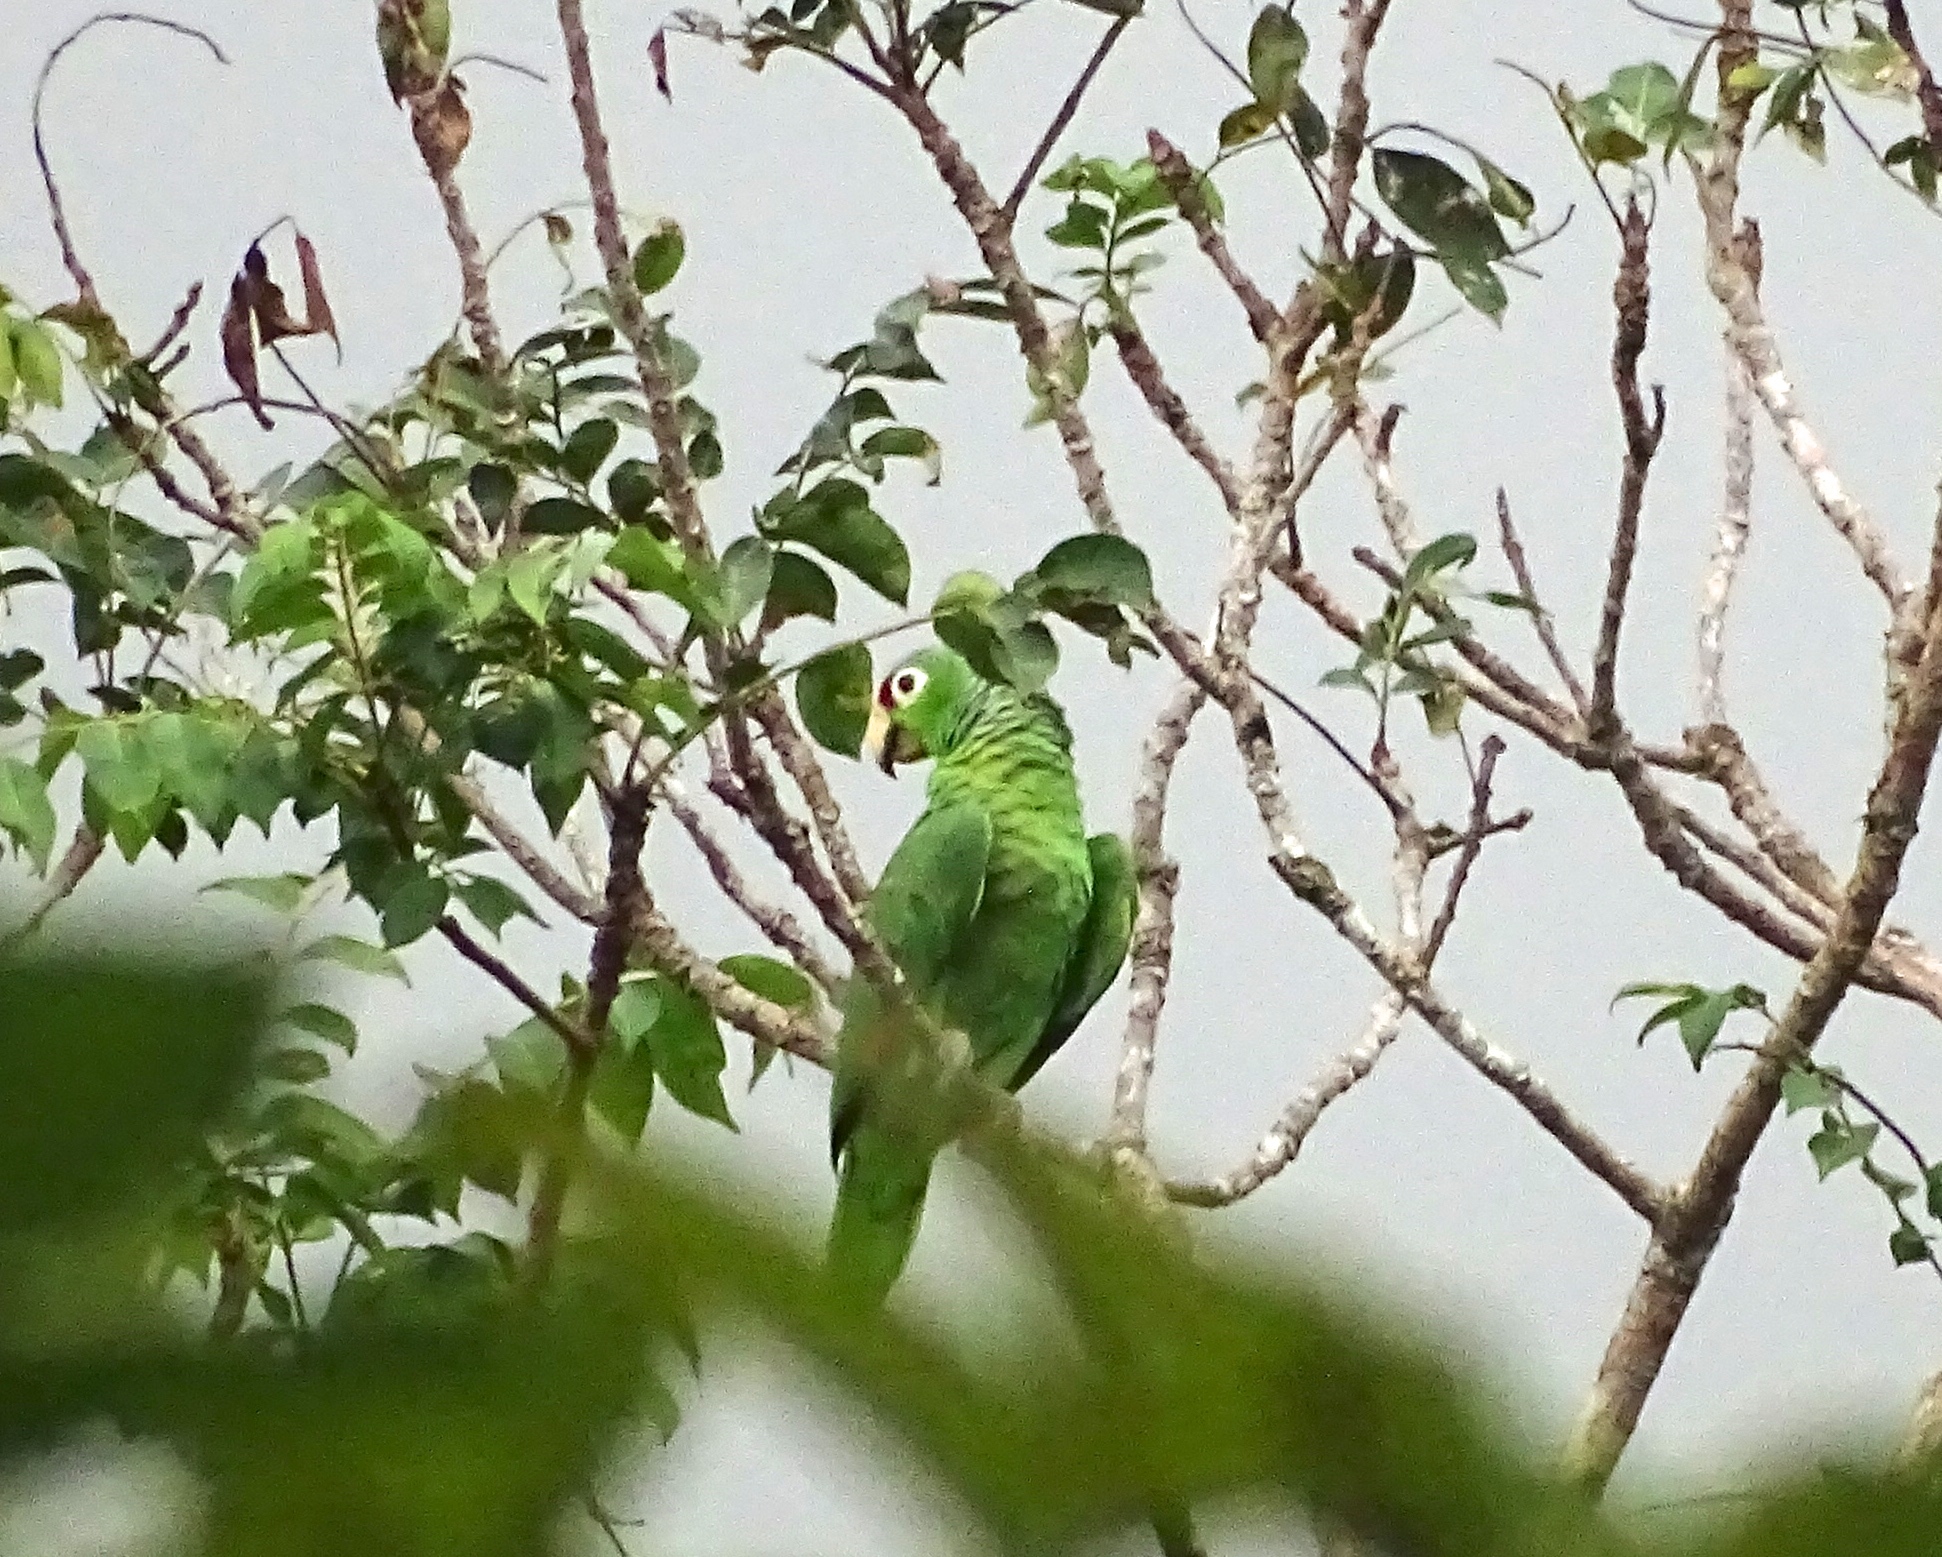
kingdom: Animalia
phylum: Chordata
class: Aves
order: Psittaciformes
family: Psittacidae
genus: Amazona
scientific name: Amazona autumnalis
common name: Red-lored amazon
